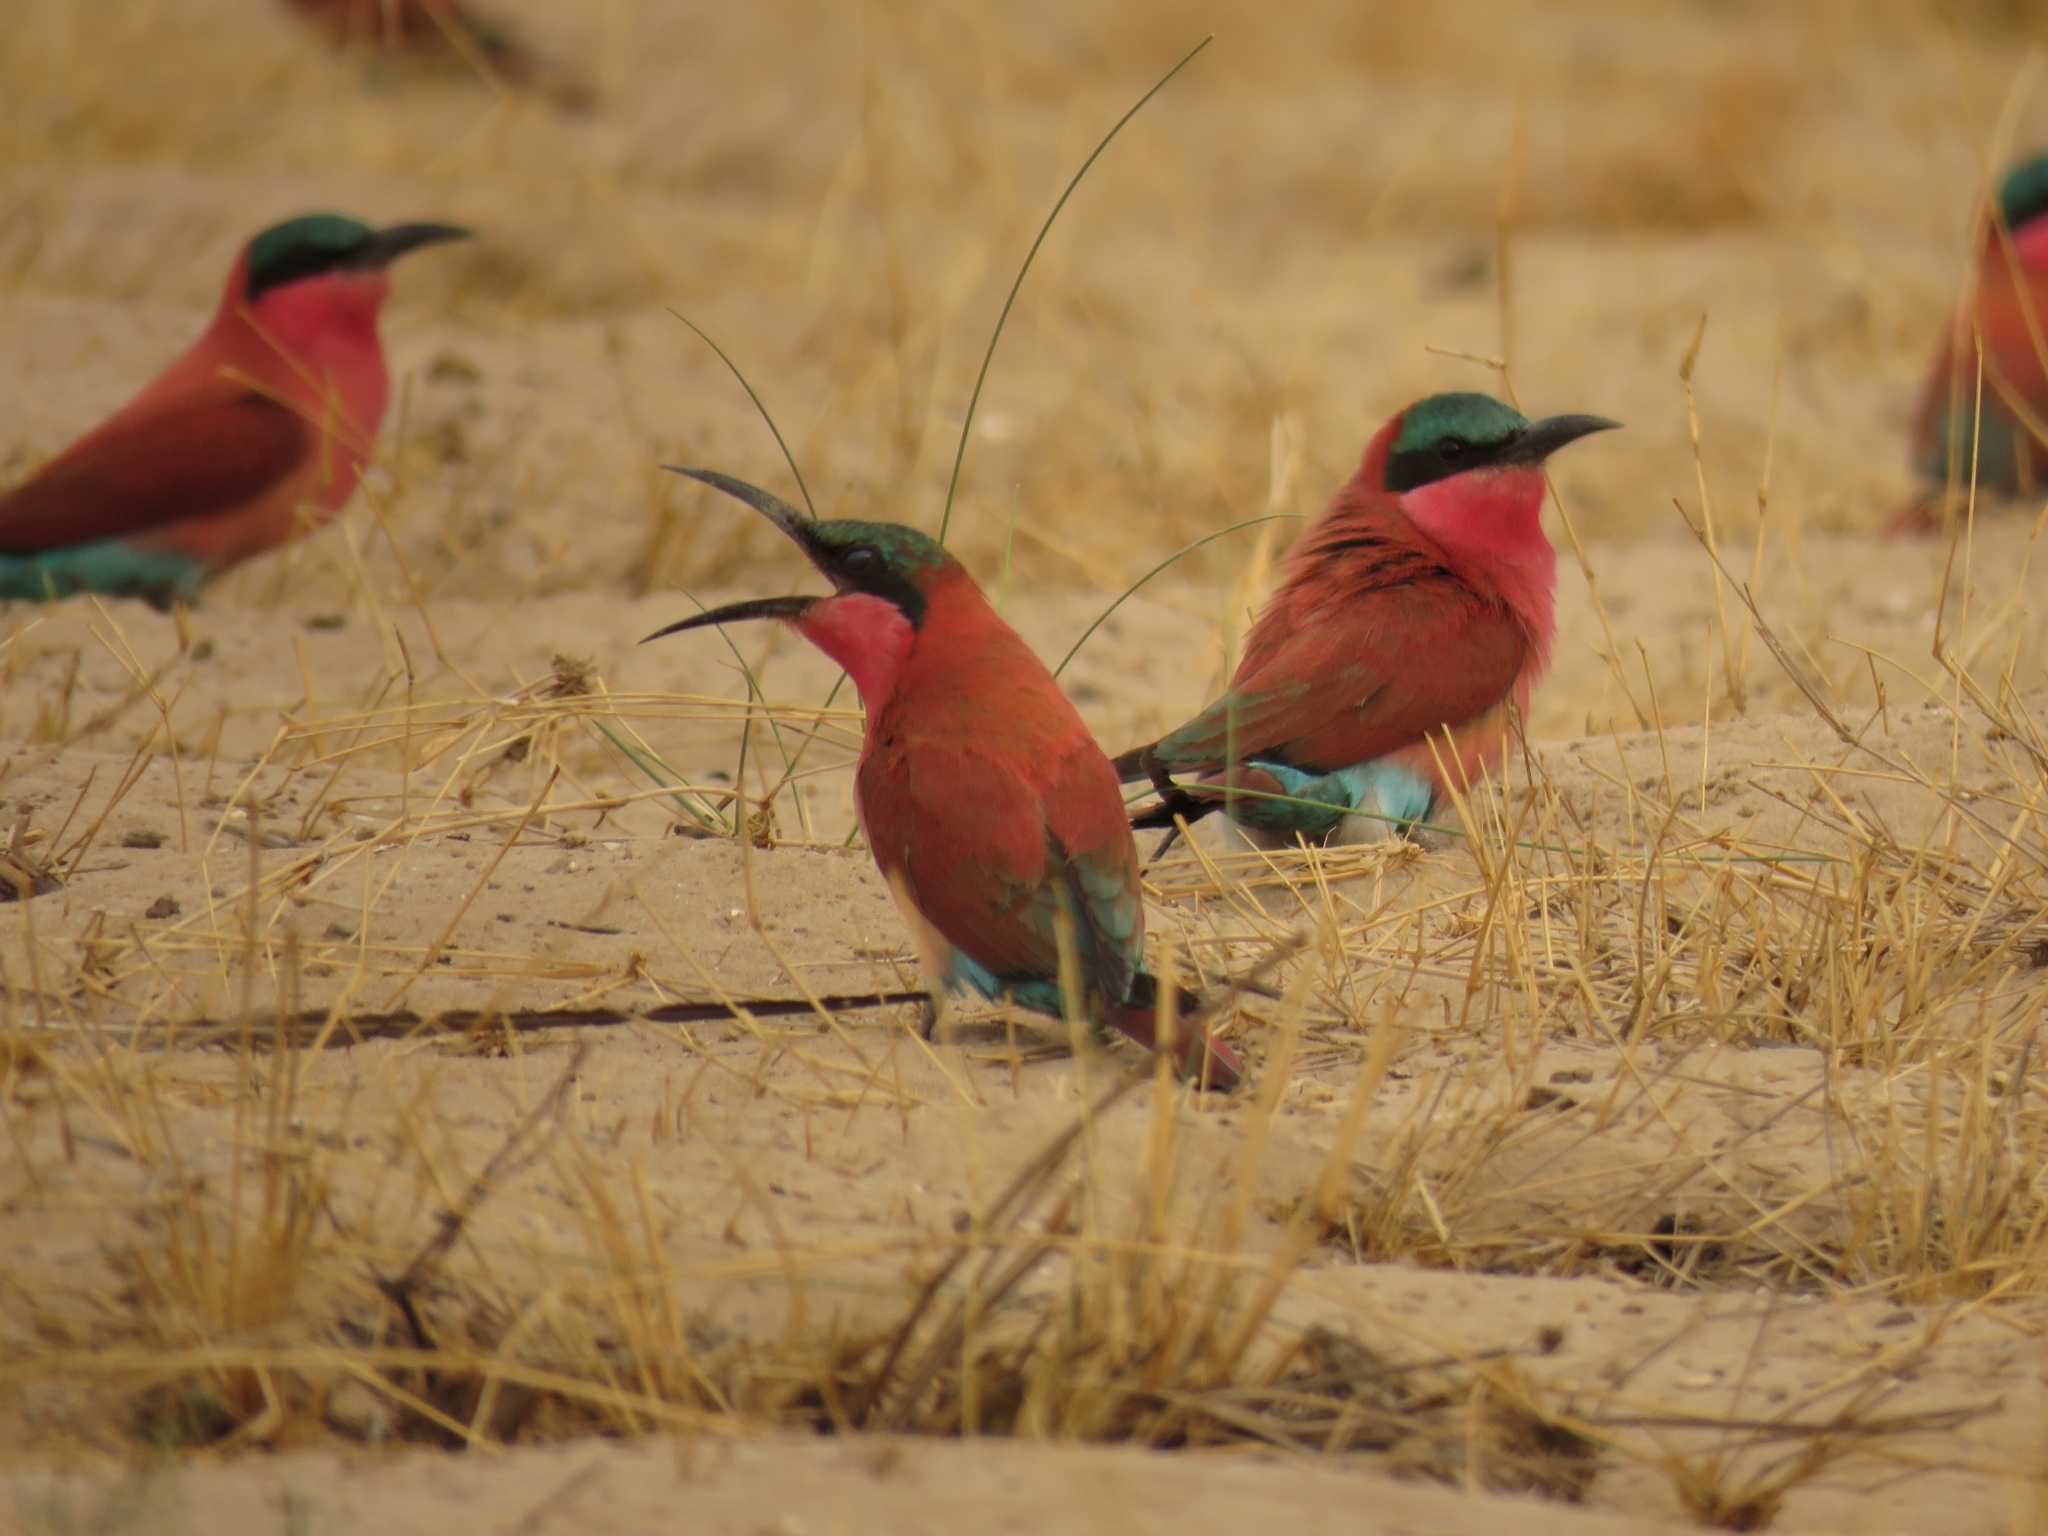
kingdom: Animalia
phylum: Chordata
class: Aves
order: Coraciiformes
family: Meropidae
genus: Merops
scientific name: Merops nubicoides
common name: Southern carmine bee-eater
